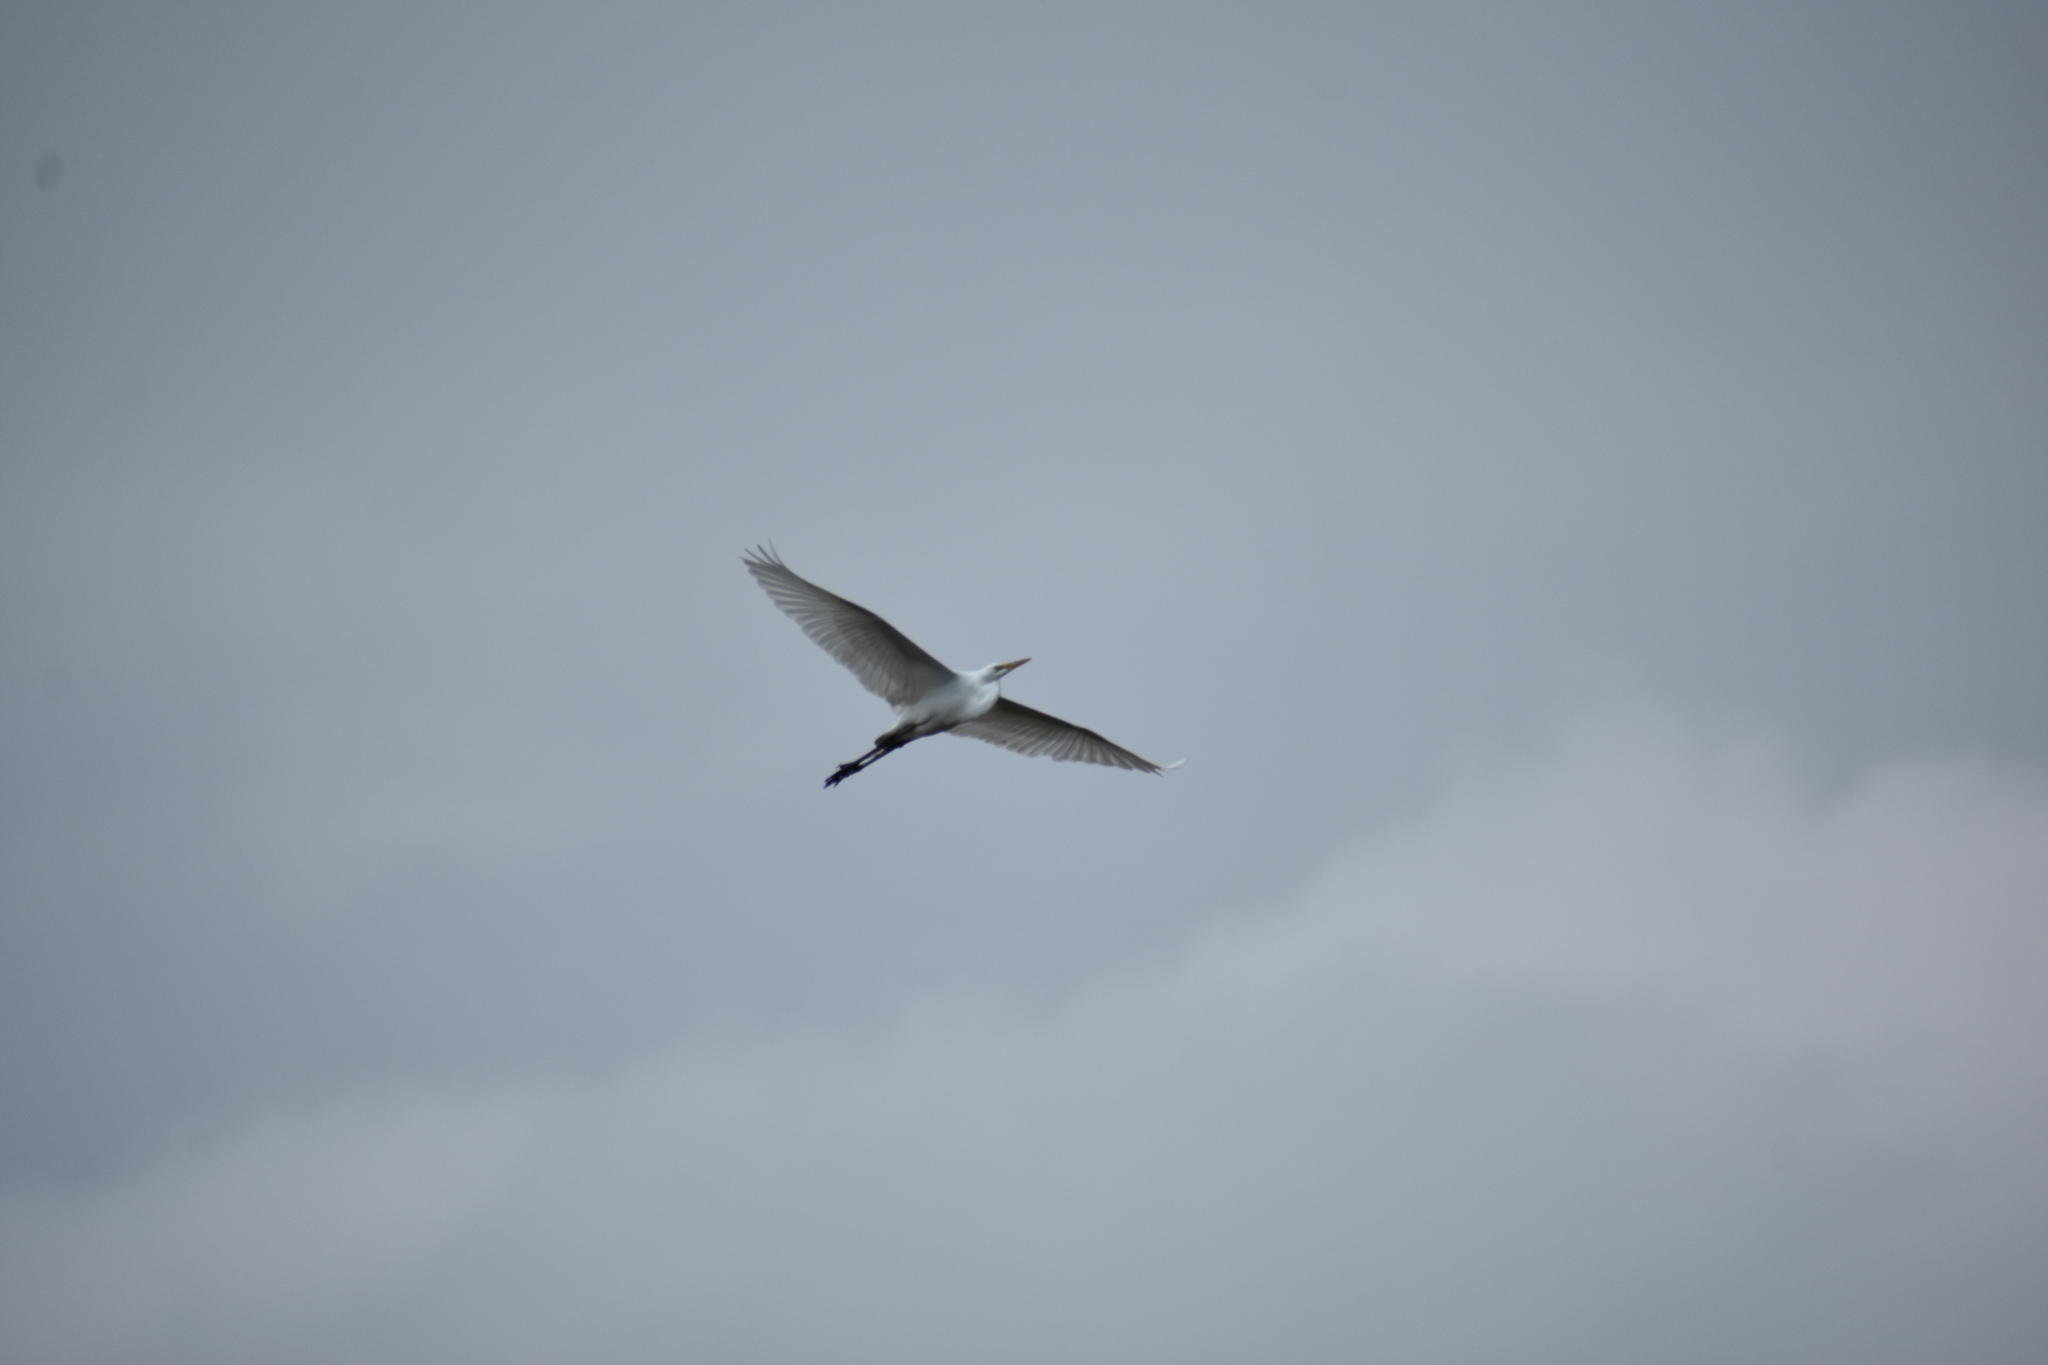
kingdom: Animalia
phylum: Chordata
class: Aves
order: Pelecaniformes
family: Ardeidae
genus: Ardea
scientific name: Ardea alba
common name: Great egret
